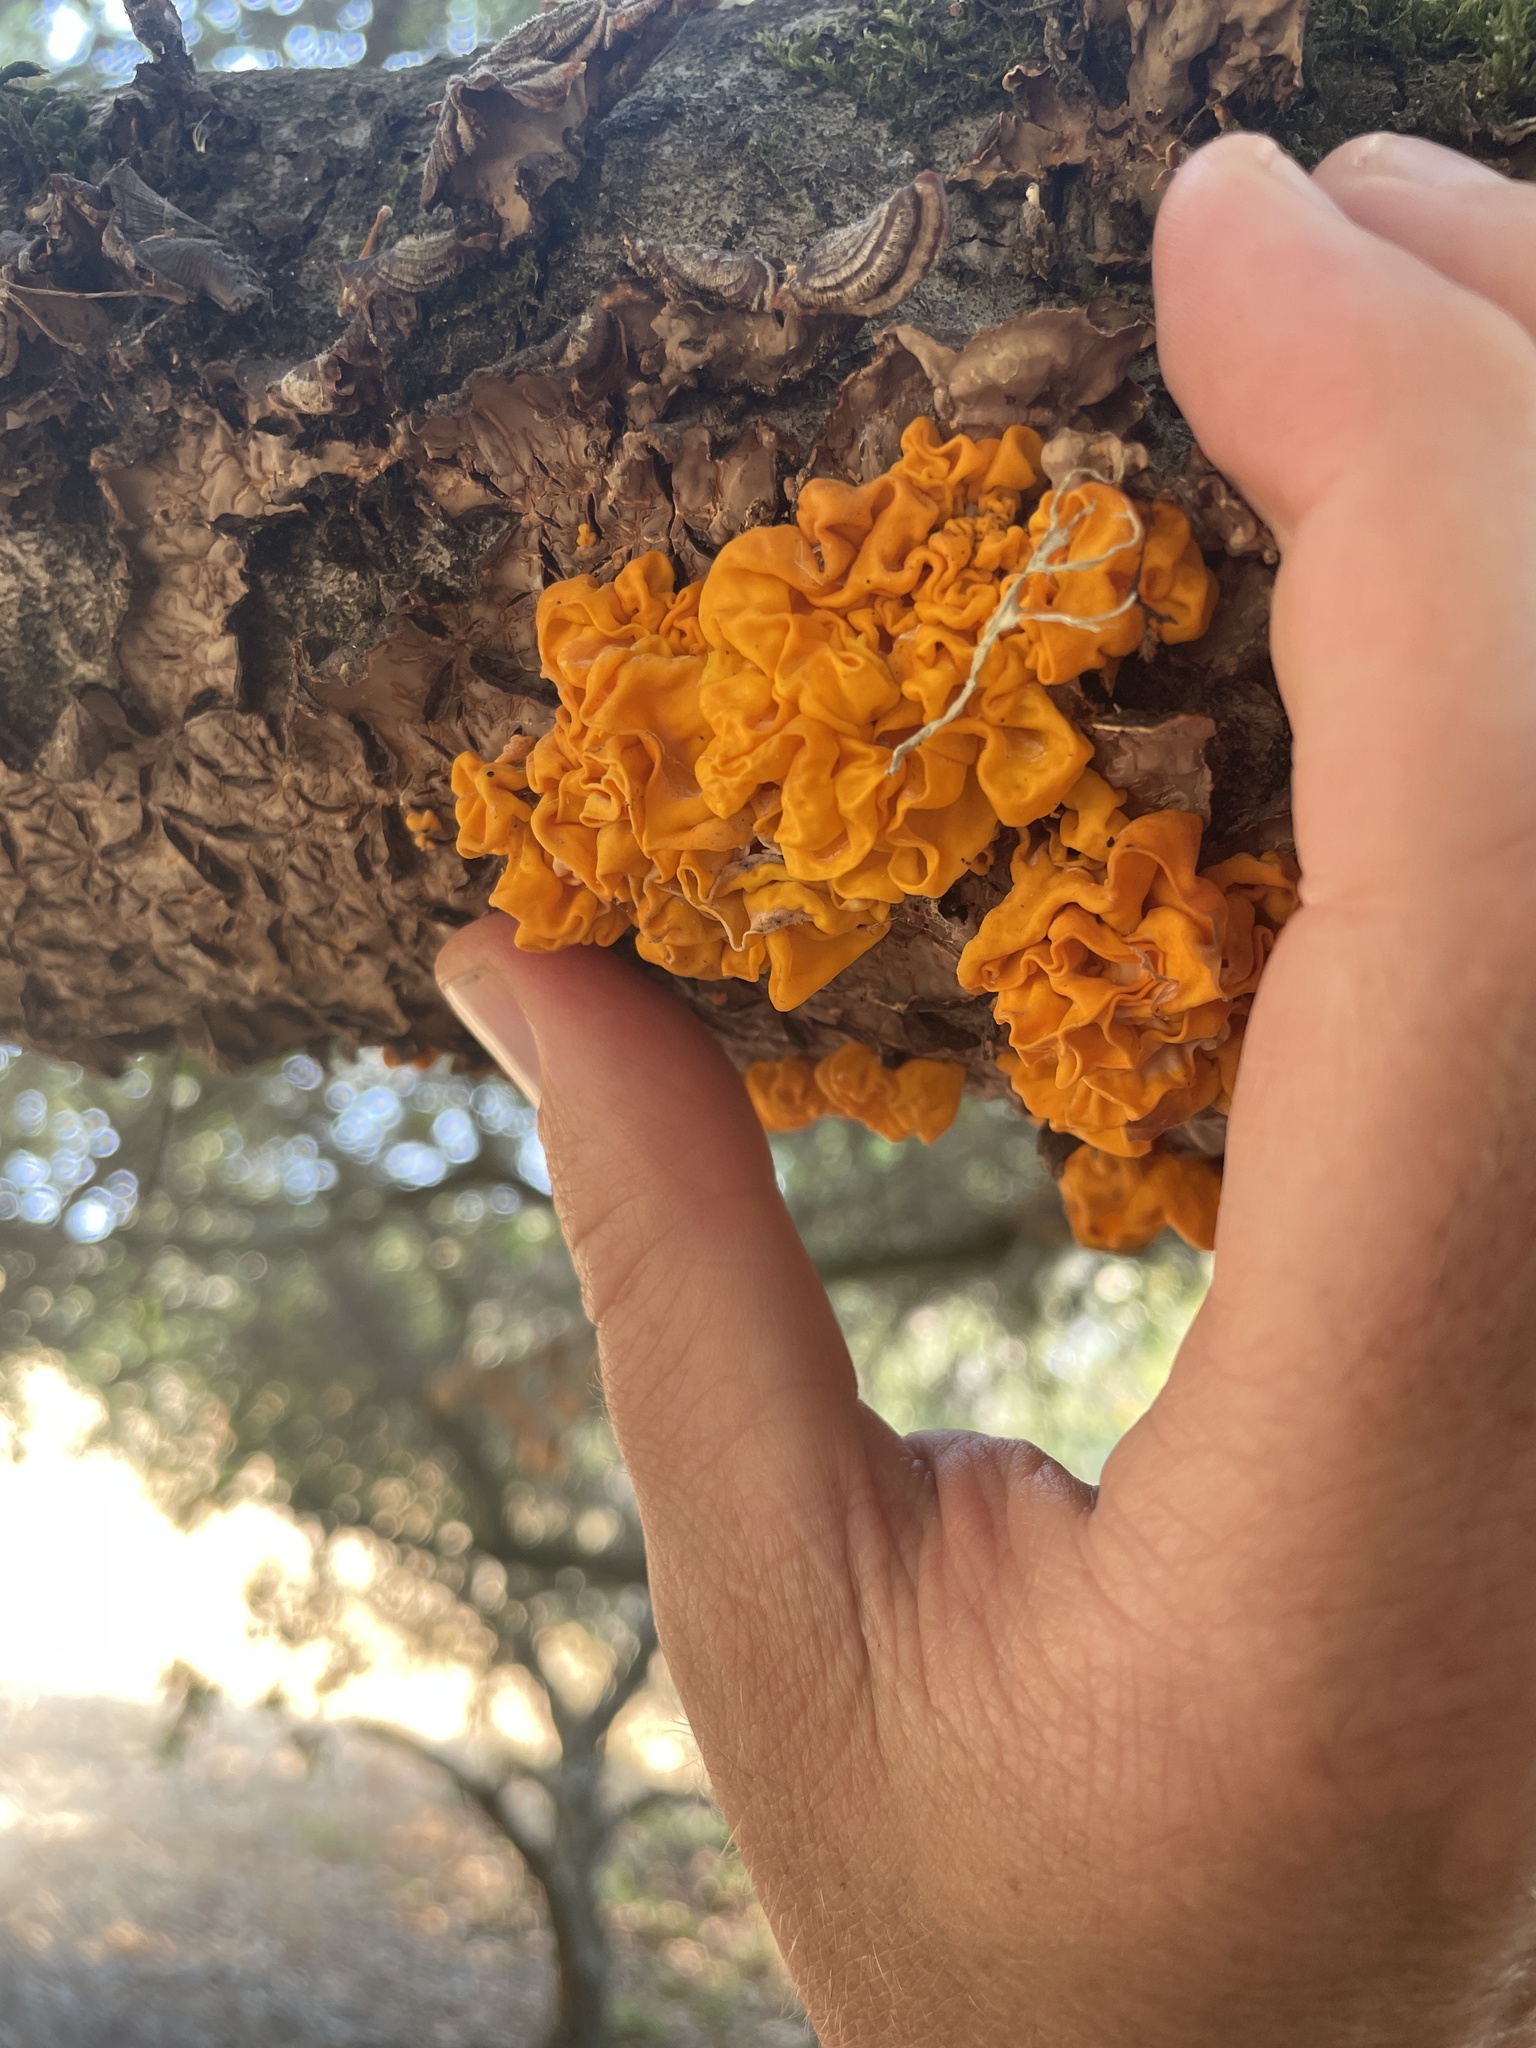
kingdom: Fungi
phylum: Basidiomycota
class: Tremellomycetes
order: Tremellales
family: Naemateliaceae
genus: Naematelia
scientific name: Naematelia aurantia
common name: Golden ear
